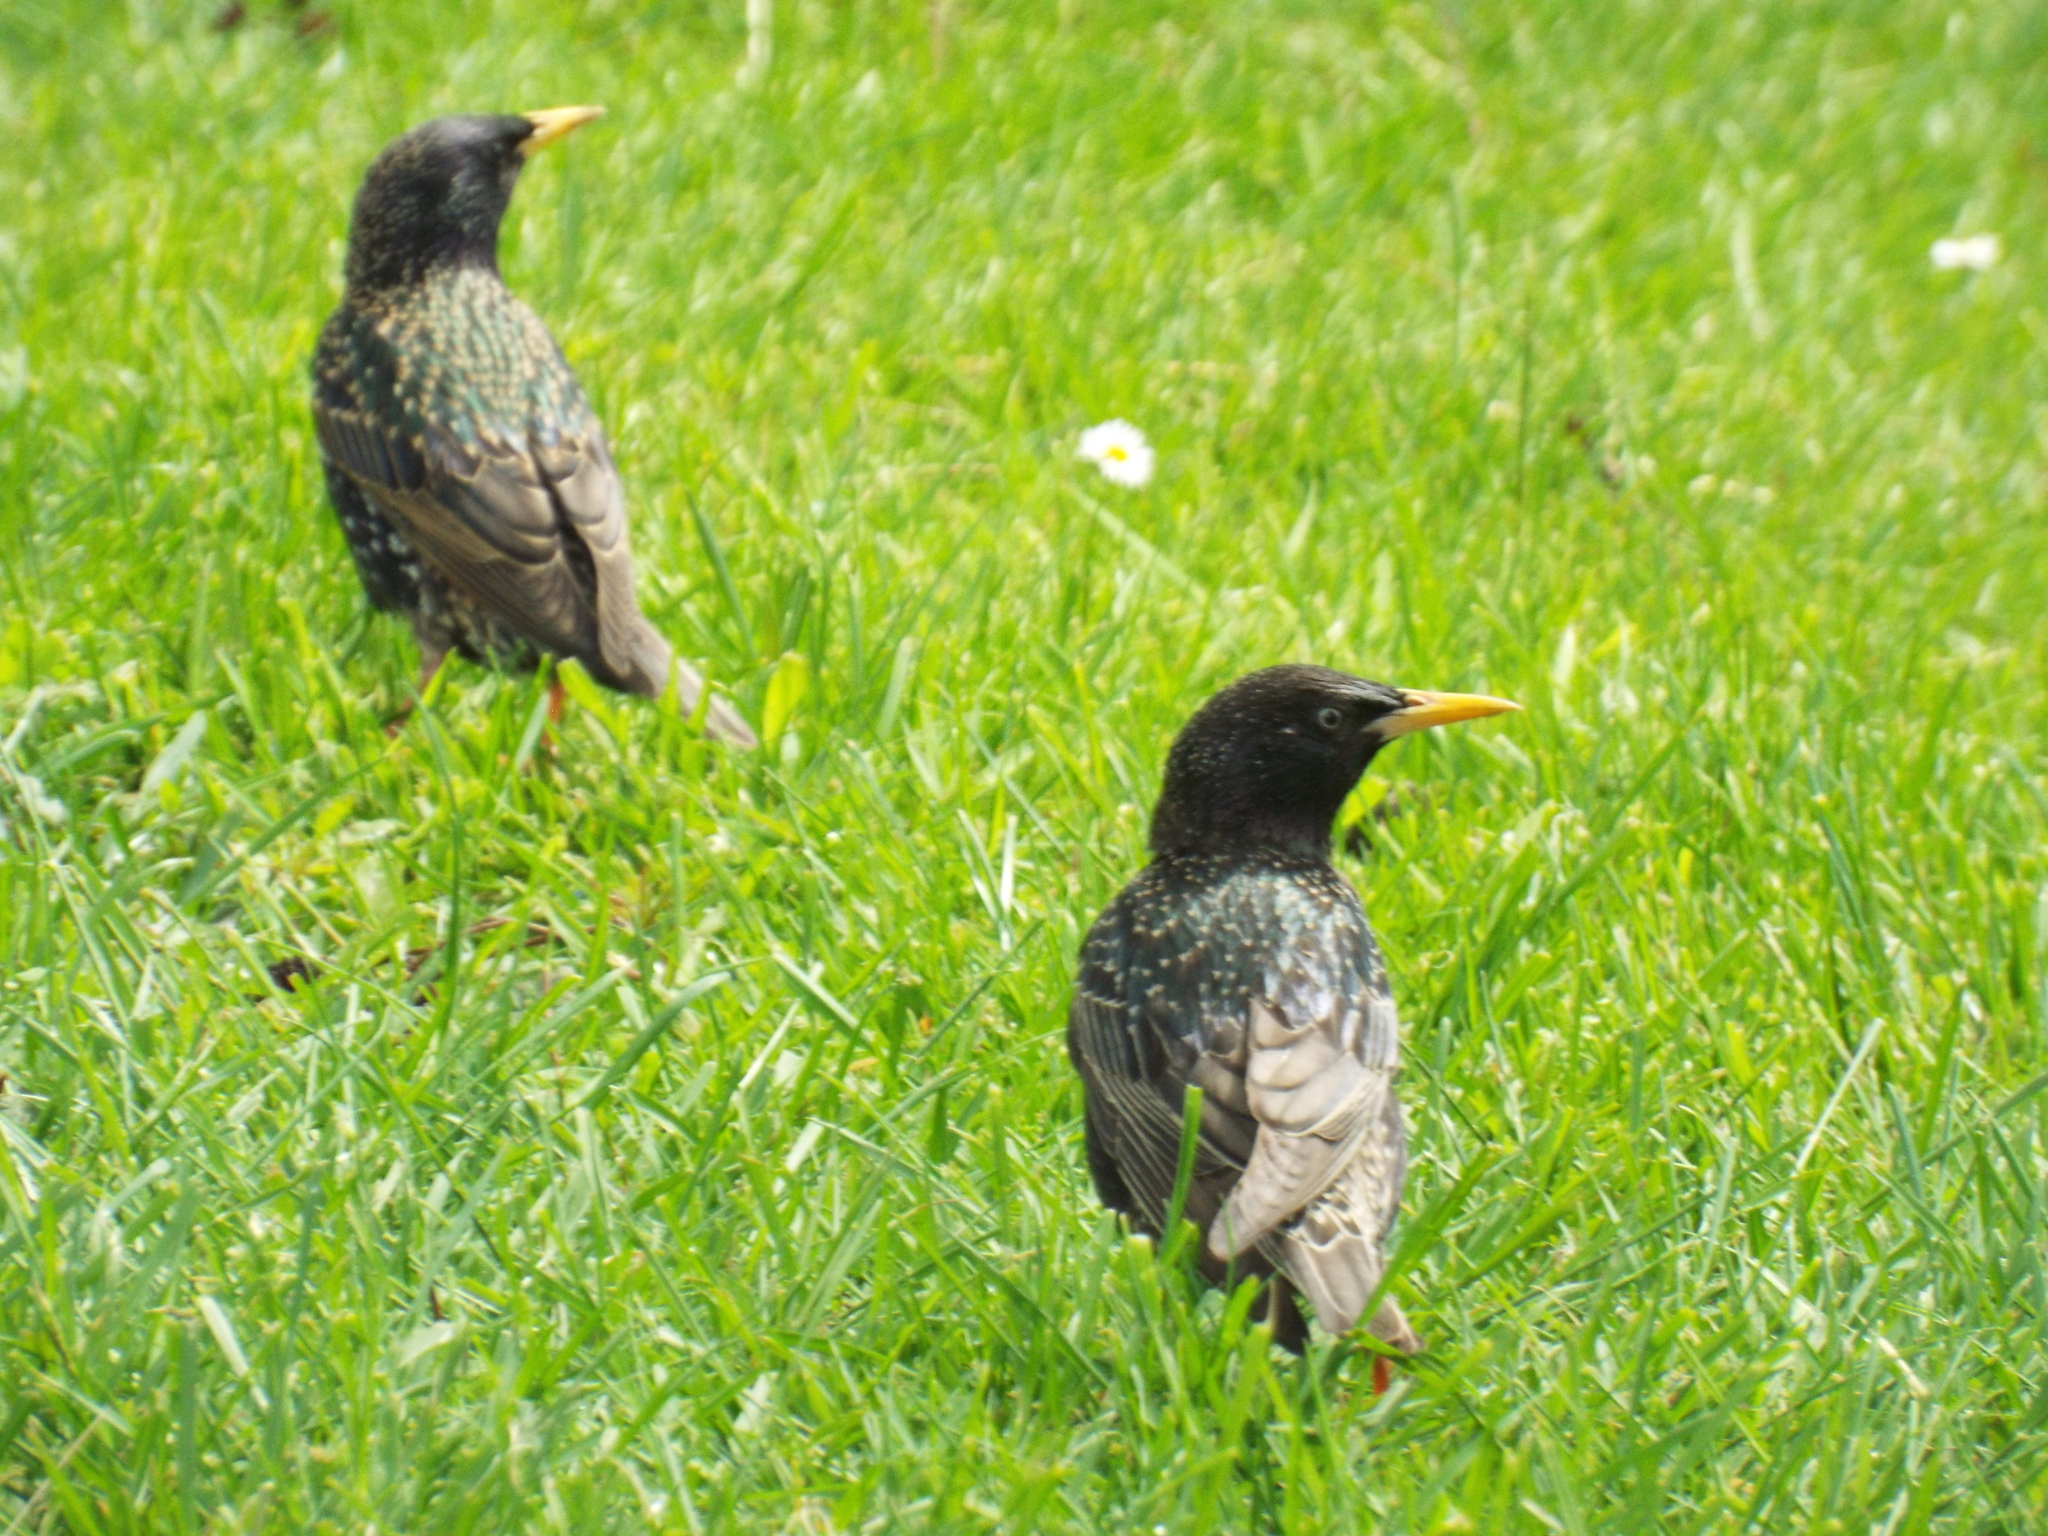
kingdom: Animalia
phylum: Chordata
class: Aves
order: Passeriformes
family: Sturnidae
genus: Sturnus
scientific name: Sturnus vulgaris
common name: Common starling
